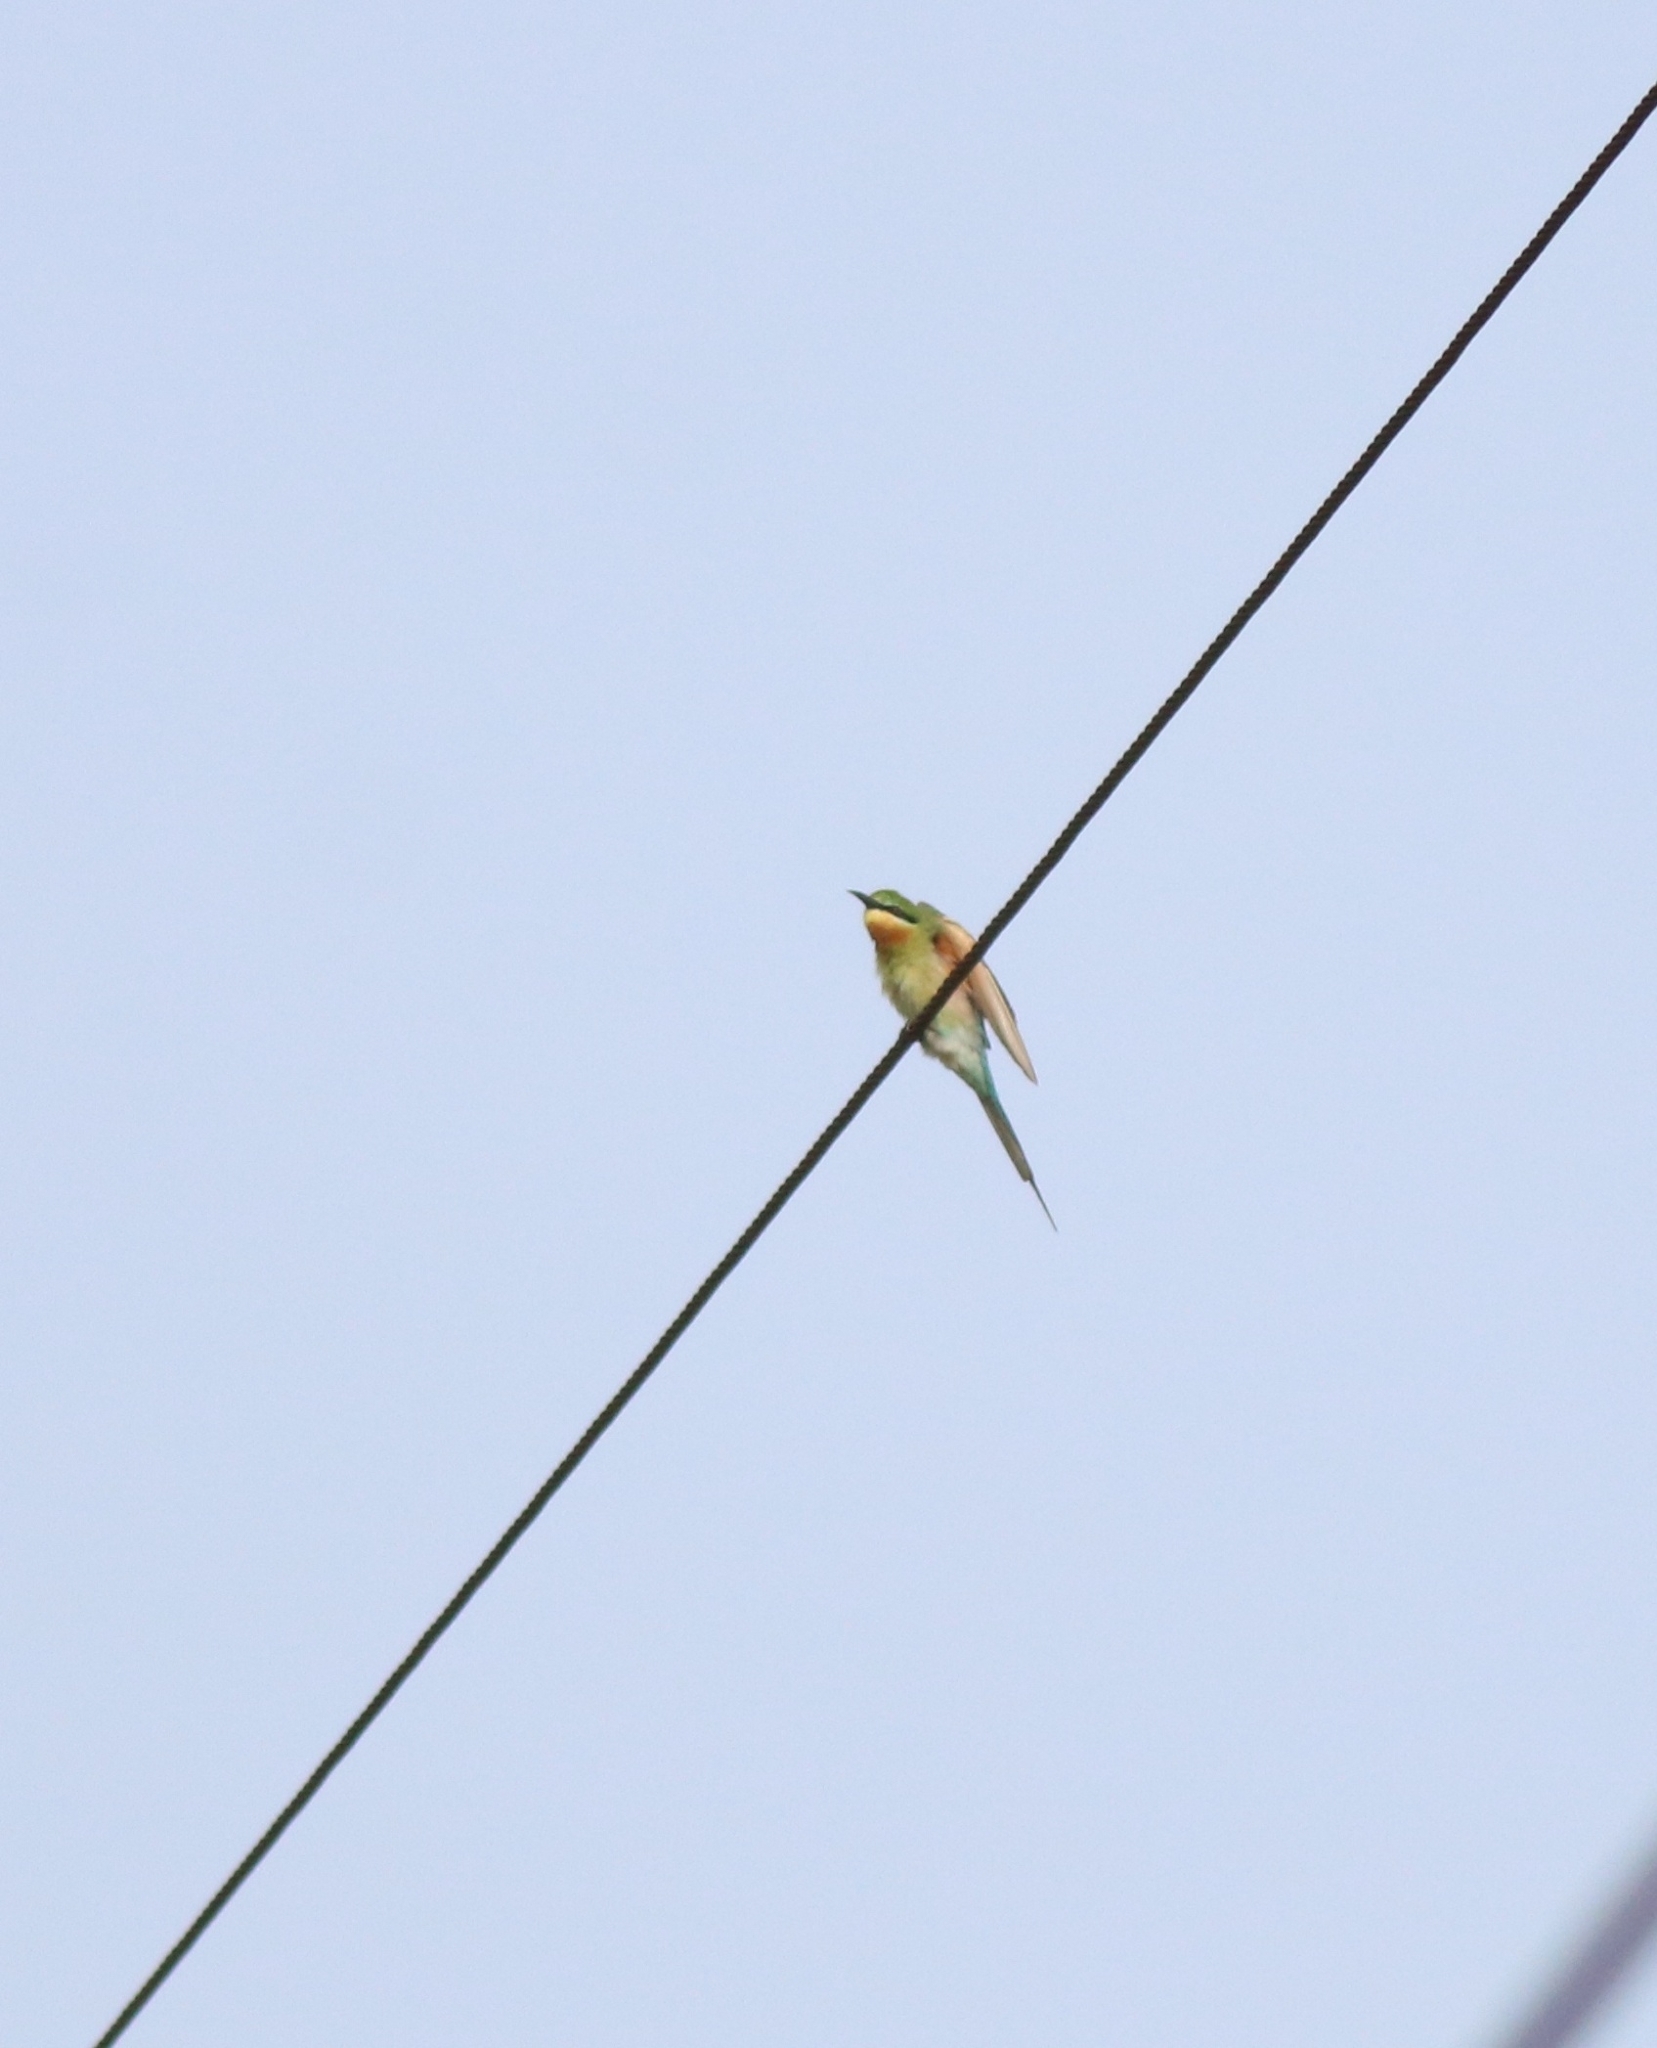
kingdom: Animalia
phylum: Chordata
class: Aves
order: Coraciiformes
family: Meropidae
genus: Merops
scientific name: Merops philippinus
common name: Blue-tailed bee-eater
